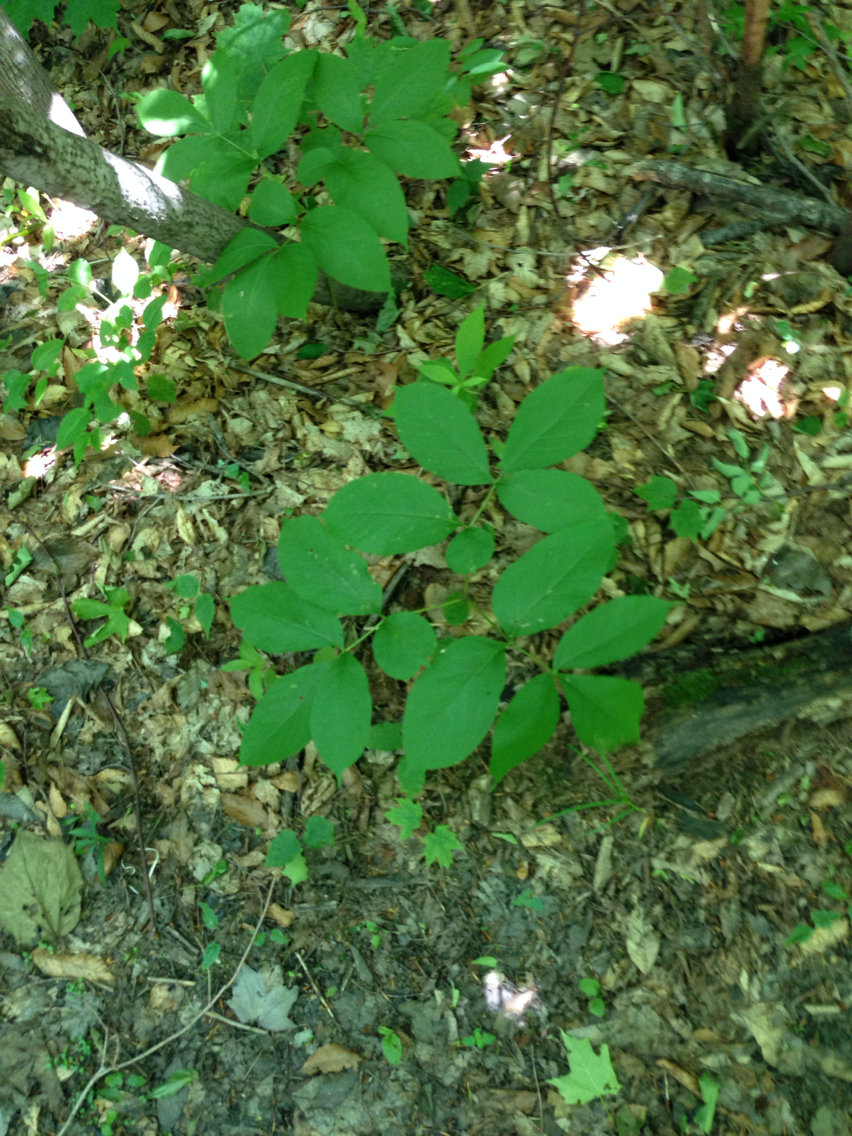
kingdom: Plantae
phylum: Tracheophyta
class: Magnoliopsida
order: Apiales
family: Araliaceae
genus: Aralia
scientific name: Aralia nudicaulis
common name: Wild sarsaparilla
